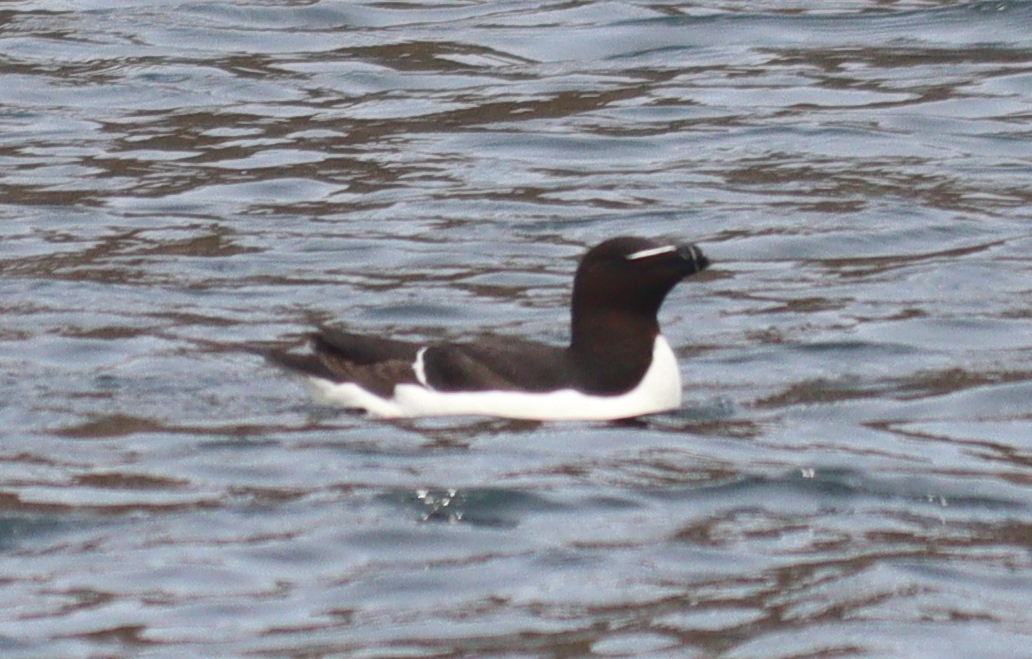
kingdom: Animalia
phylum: Chordata
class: Aves
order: Charadriiformes
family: Alcidae
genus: Alca
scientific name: Alca torda
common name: Razorbill
